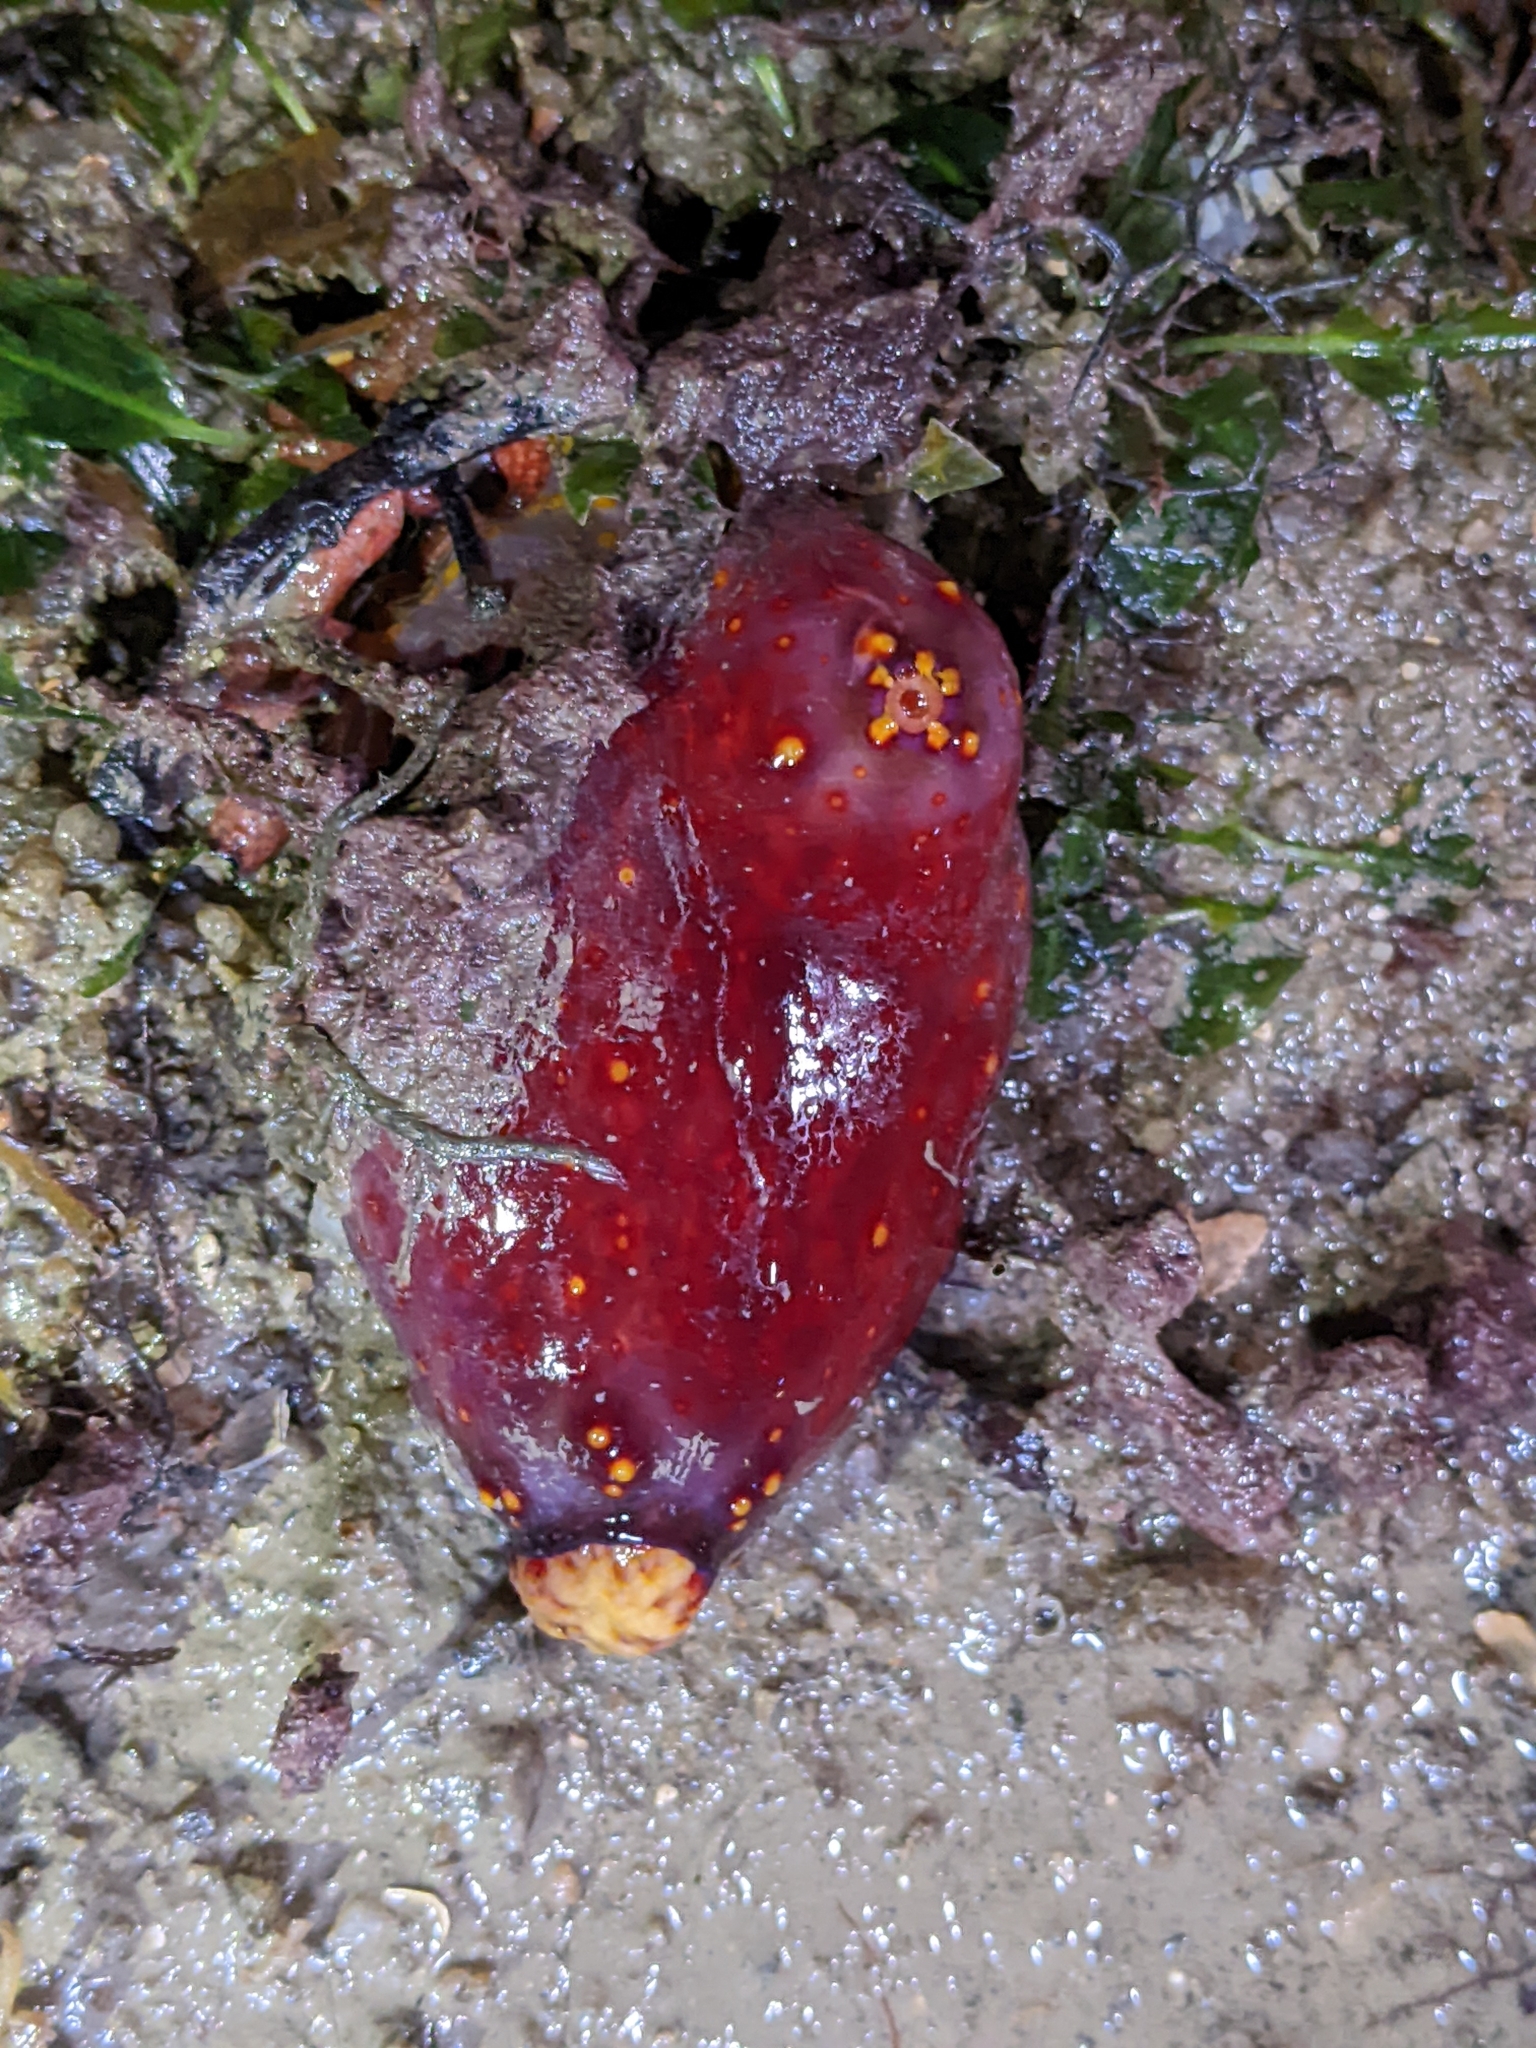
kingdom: Animalia
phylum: Echinodermata
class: Holothuroidea
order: Dendrochirotida
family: Cucumariidae
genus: Pseudocolochirus
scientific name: Pseudocolochirus violaceus
